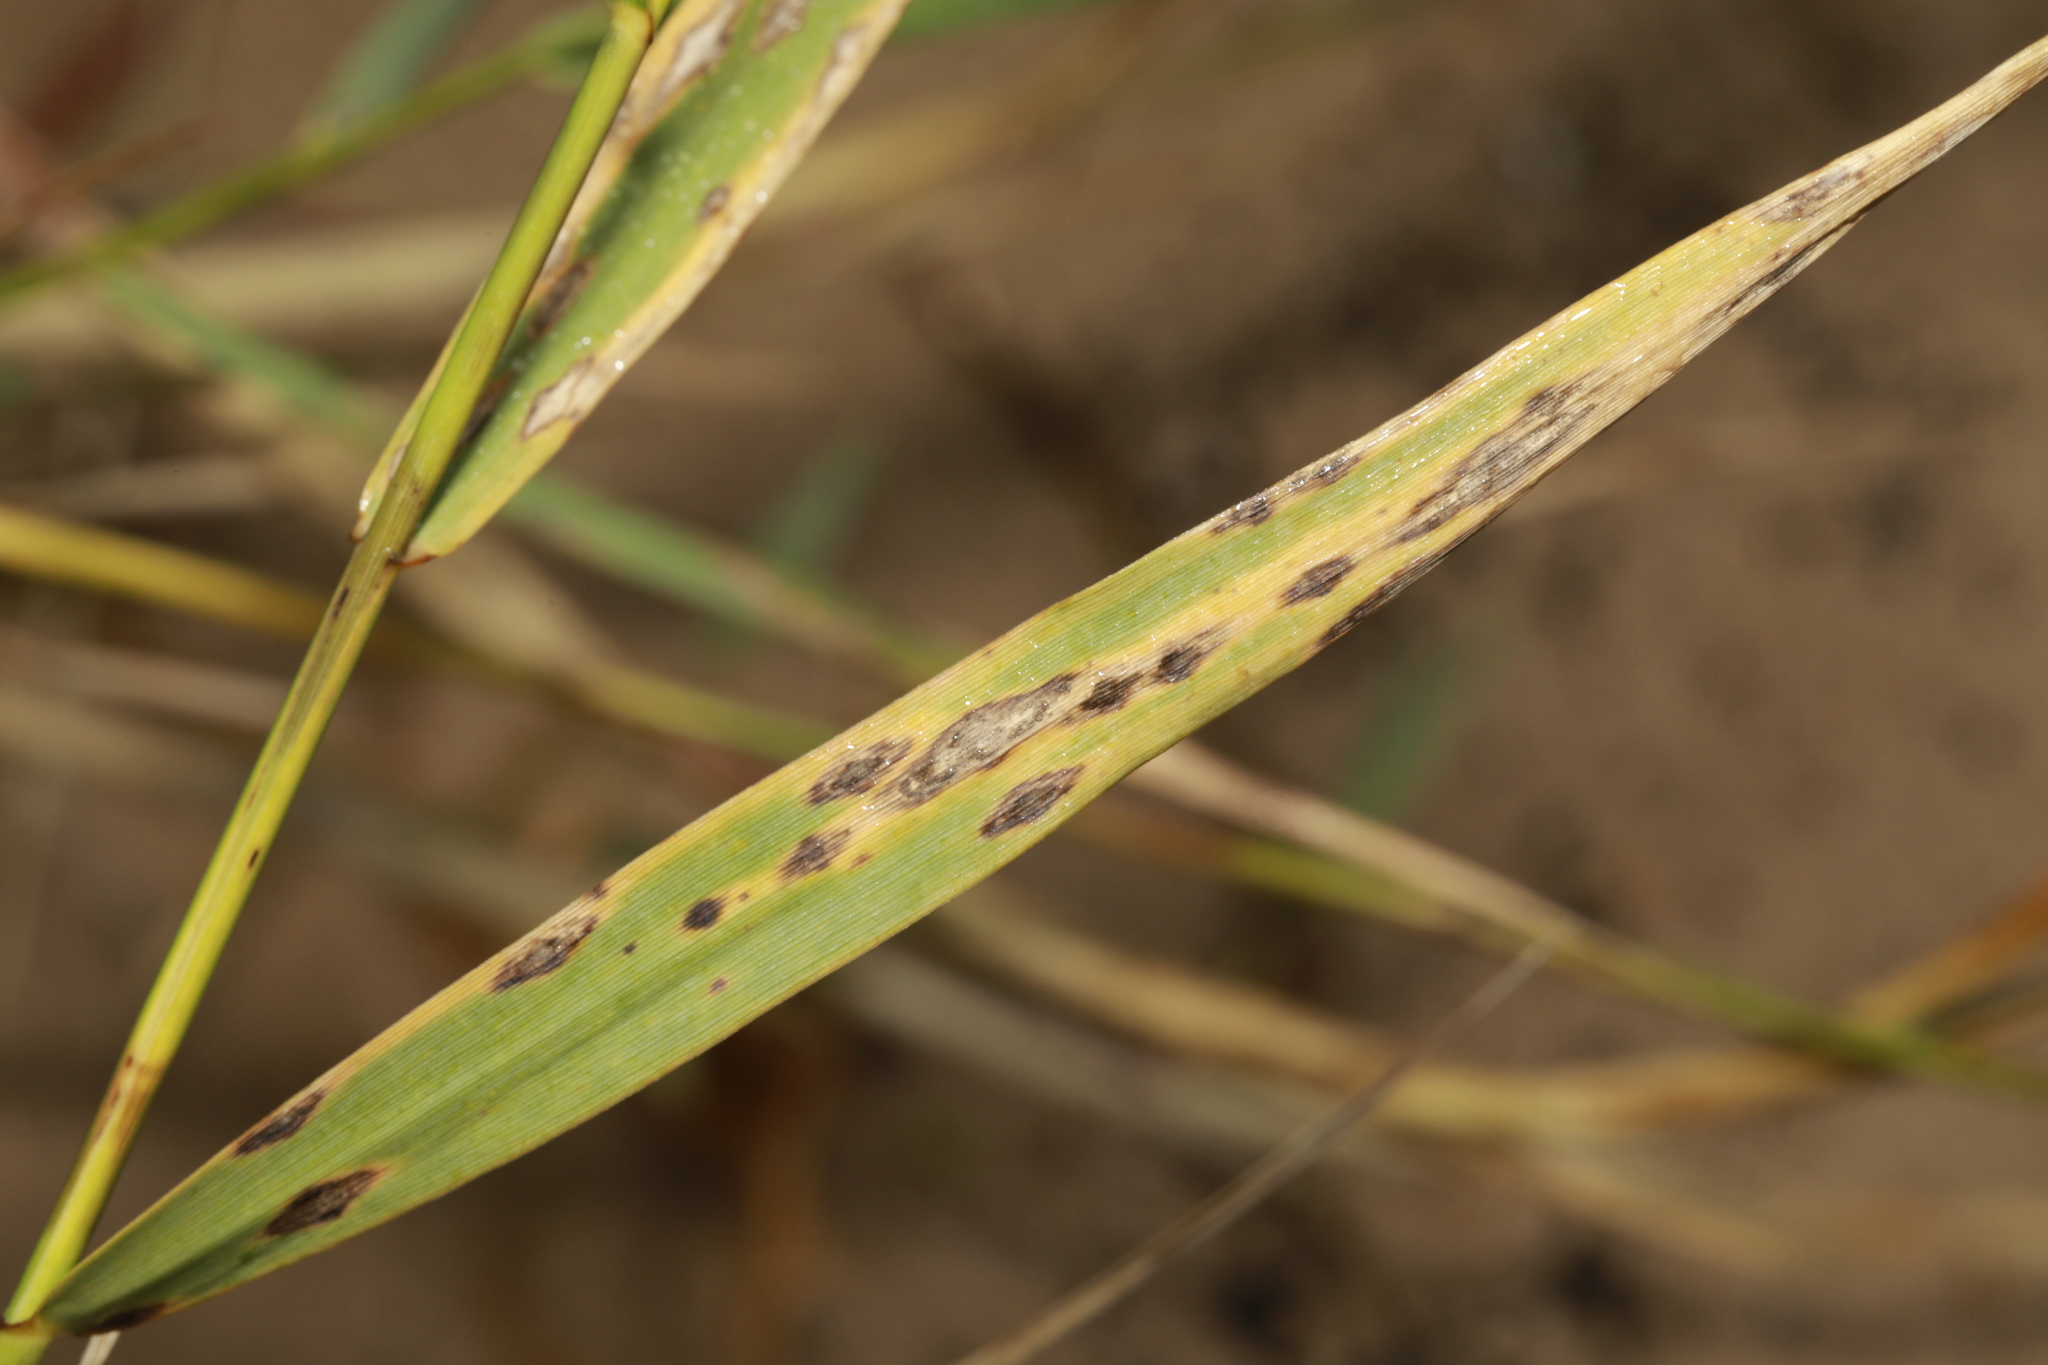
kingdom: Fungi
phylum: Basidiomycota
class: Pucciniomycetes
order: Pucciniales
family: Pucciniaceae
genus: Puccinia
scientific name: Puccinia phragmitis
